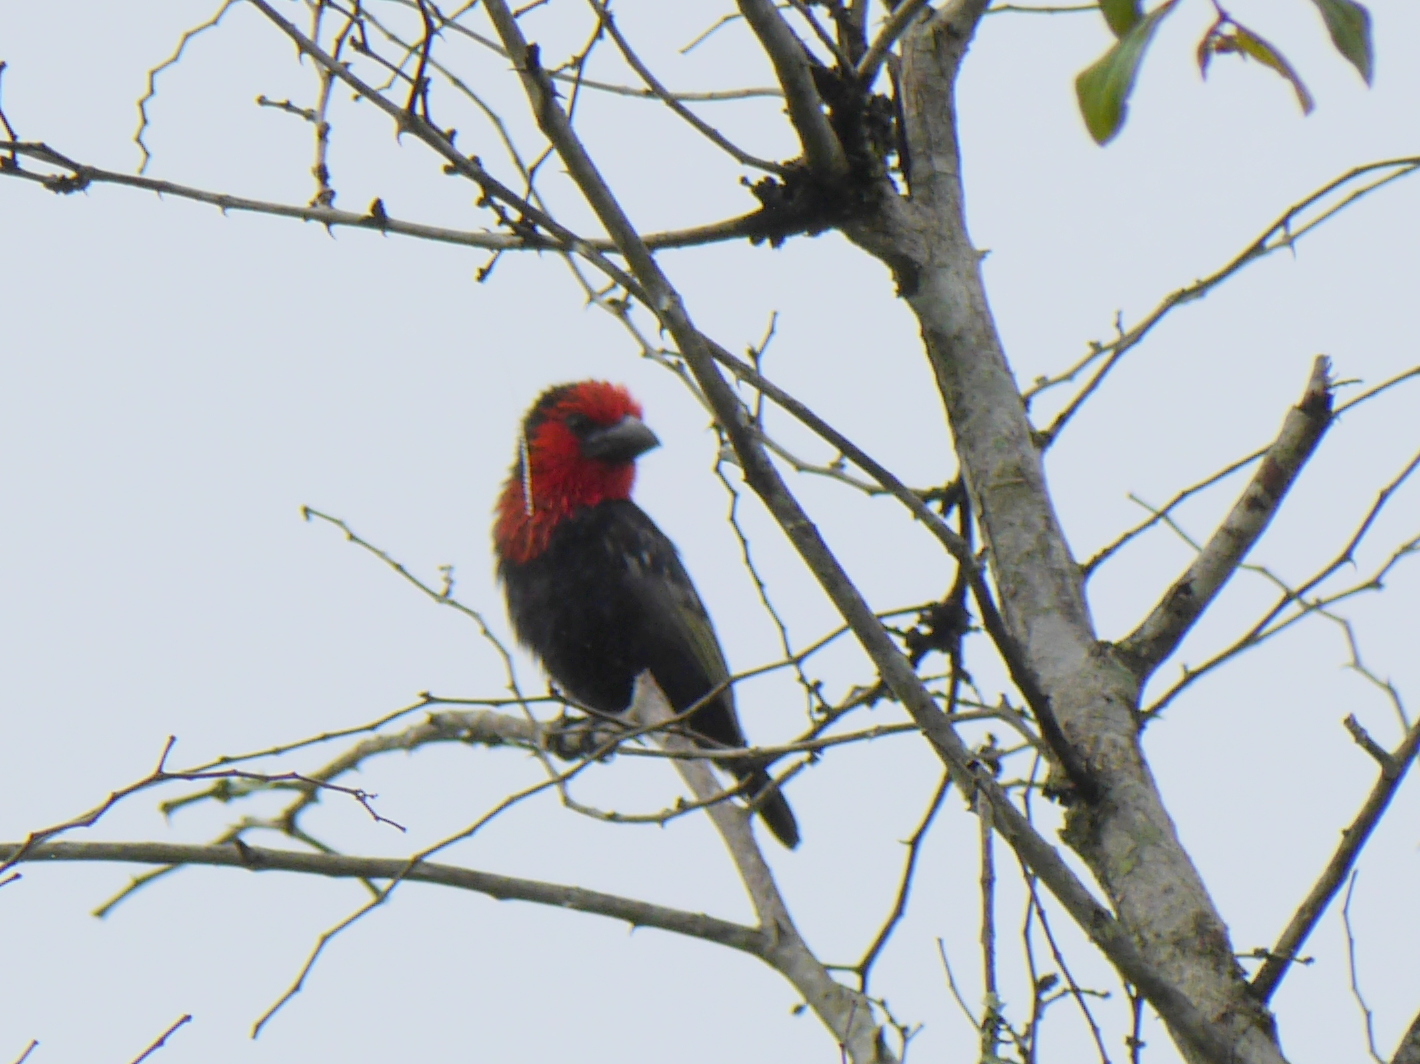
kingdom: Animalia
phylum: Chordata
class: Aves
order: Piciformes
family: Lybiidae
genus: Lybius
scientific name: Lybius guifsobalito
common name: Black-billed barbet
